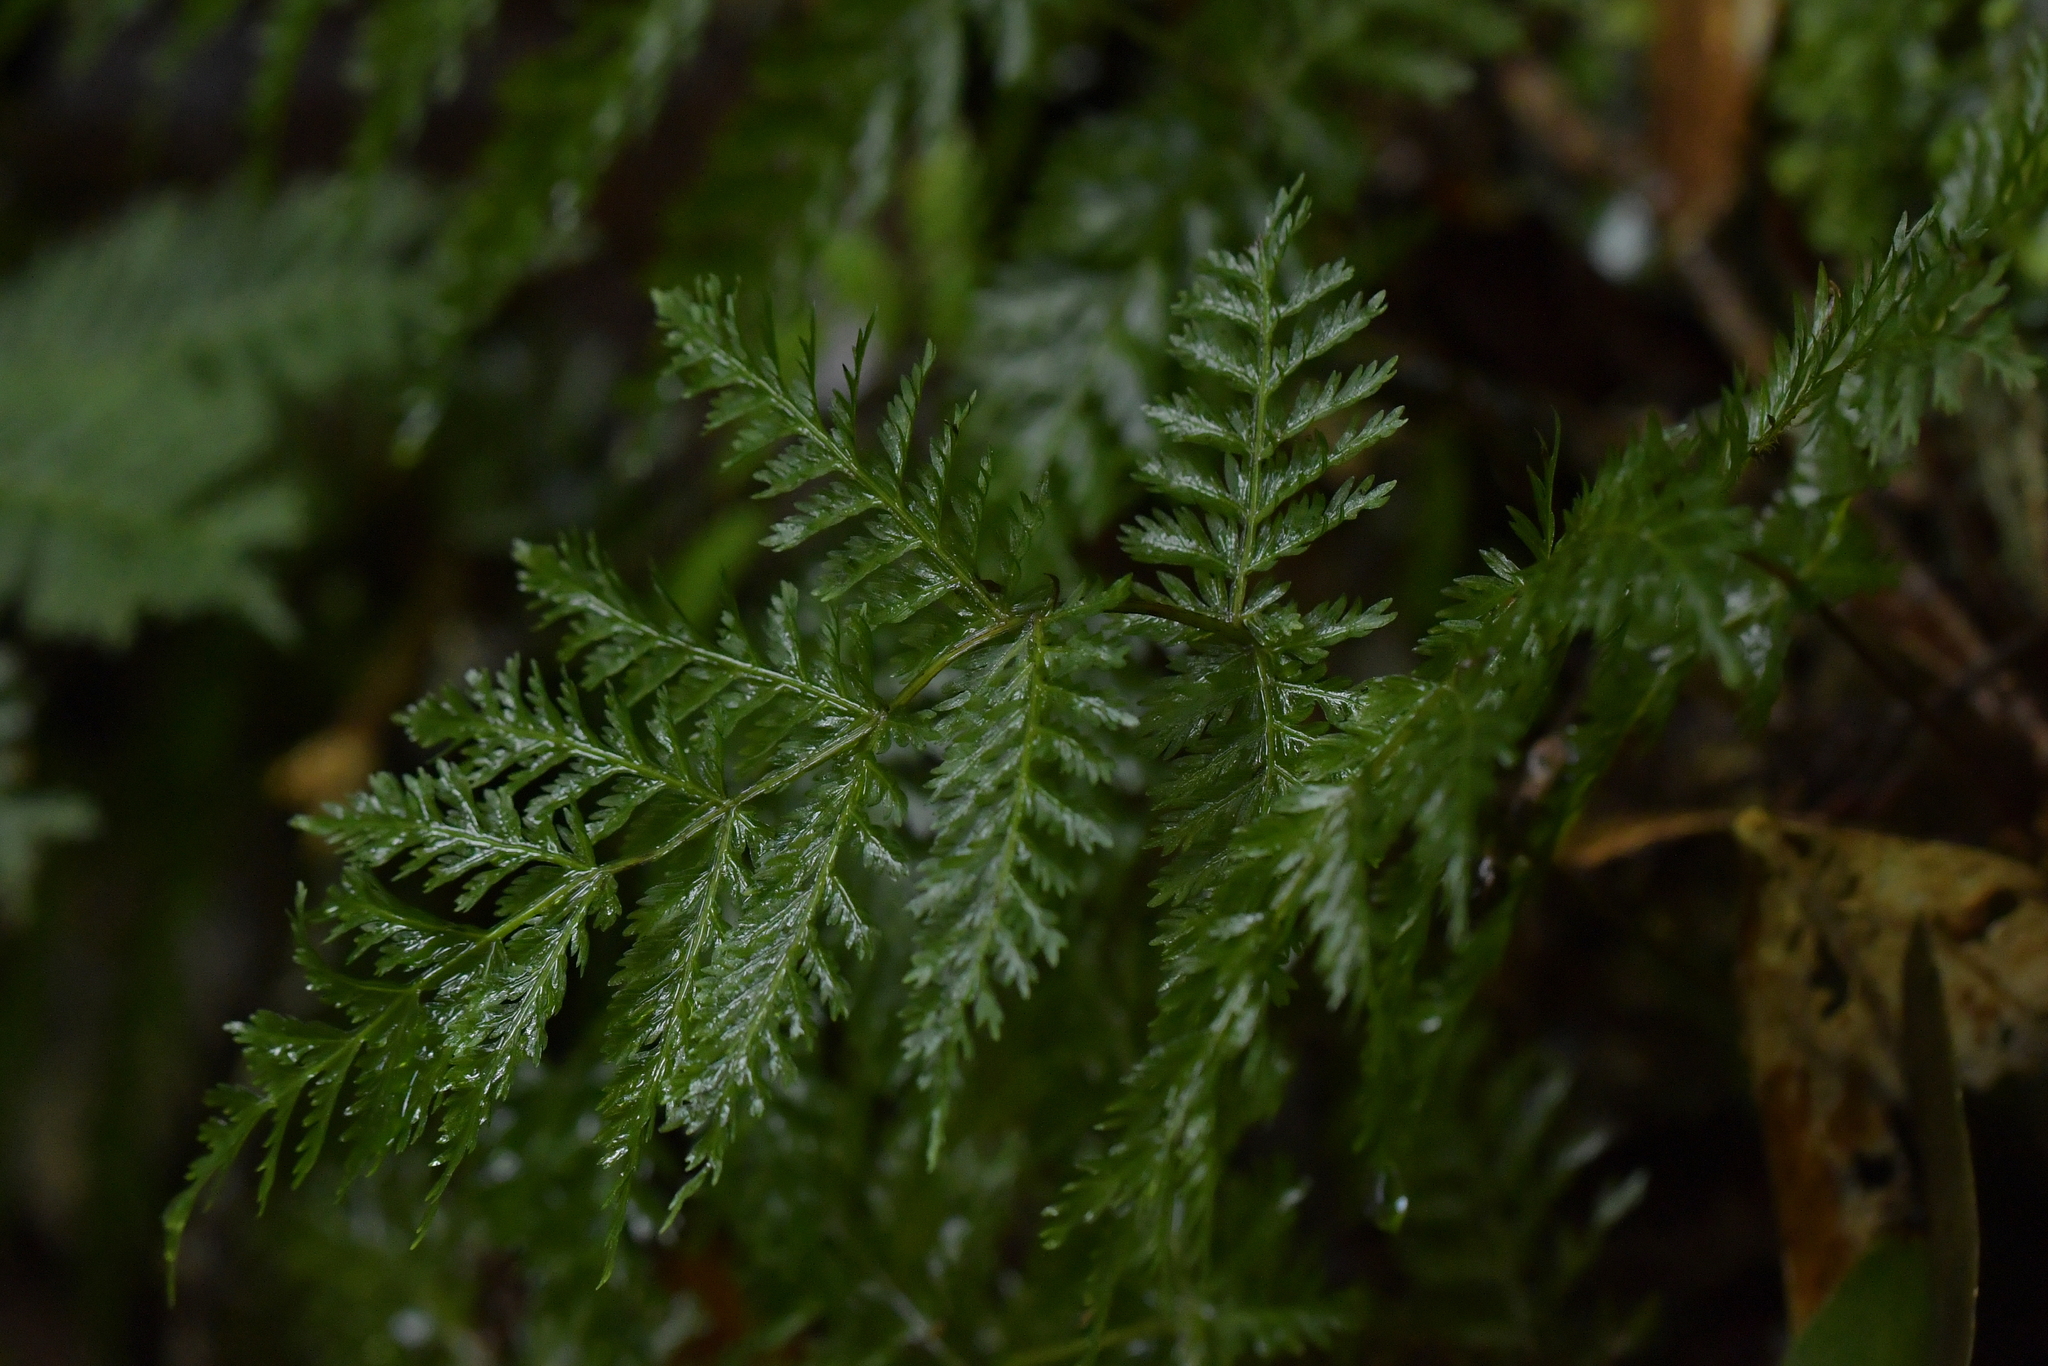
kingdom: Plantae
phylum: Tracheophyta
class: Polypodiopsida
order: Osmundales
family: Osmundaceae
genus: Leptopteris
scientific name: Leptopteris hymenophylloides
